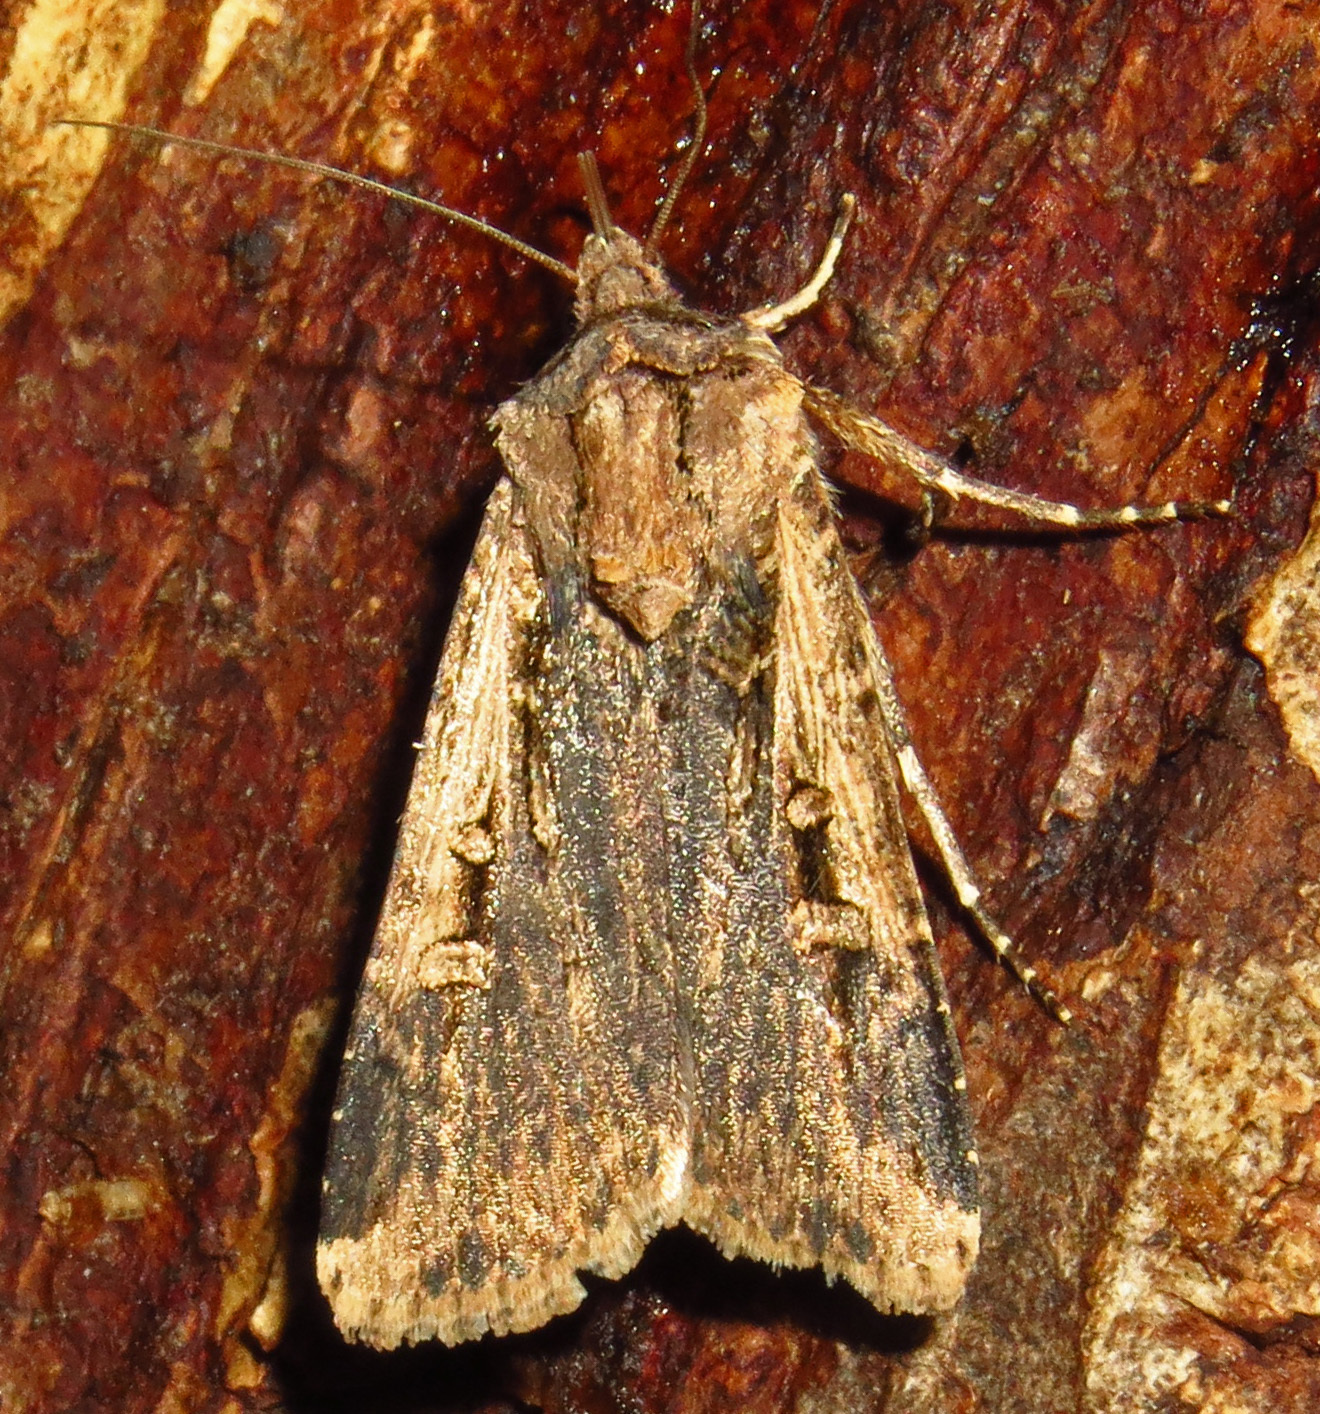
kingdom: Animalia
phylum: Arthropoda
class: Insecta
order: Lepidoptera
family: Noctuidae
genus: Feltia
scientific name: Feltia subterranea
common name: Granulate cutworm
